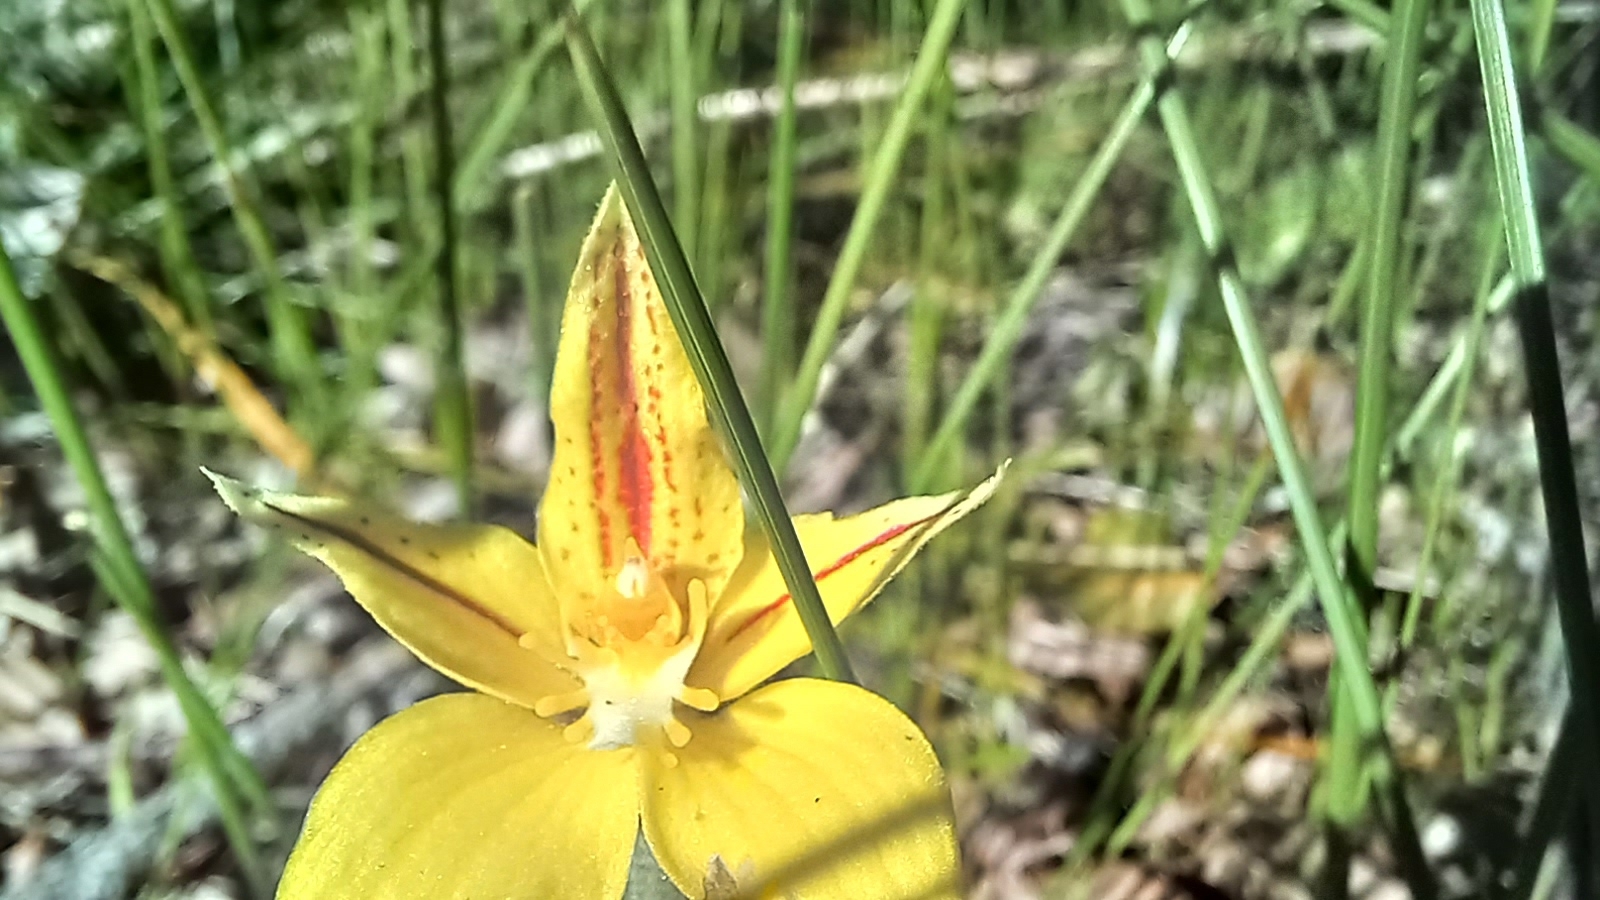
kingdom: Plantae
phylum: Tracheophyta
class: Liliopsida
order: Asparagales
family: Orchidaceae
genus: Caladenia
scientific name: Caladenia flava
